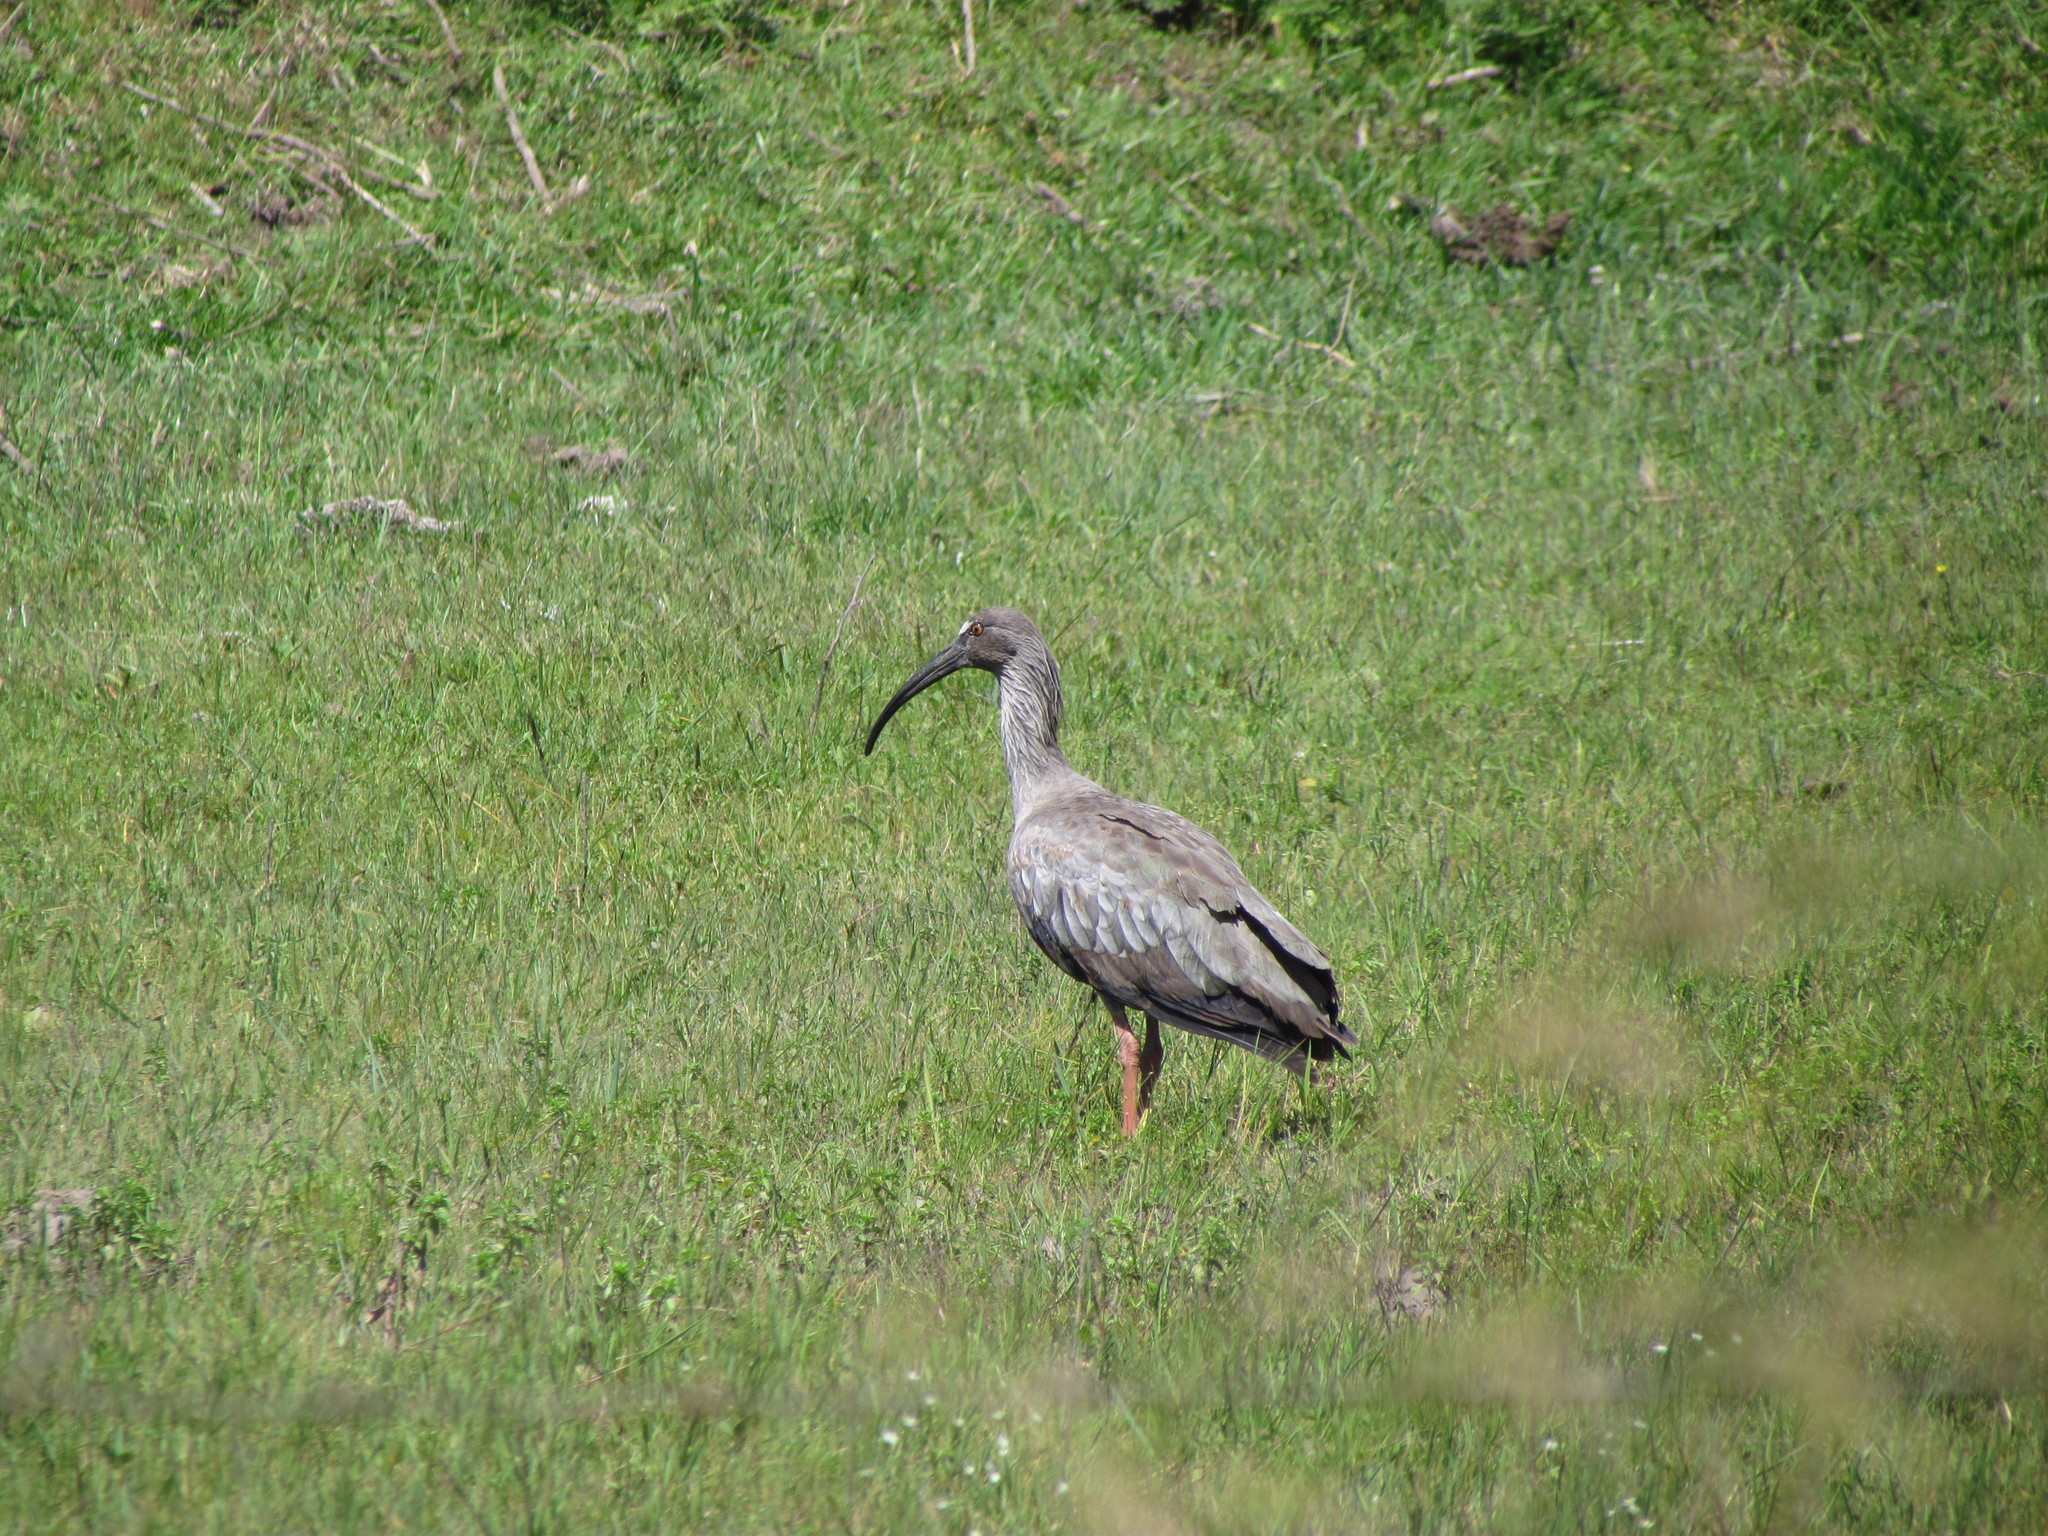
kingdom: Animalia
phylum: Chordata
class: Aves
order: Pelecaniformes
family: Threskiornithidae
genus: Theristicus
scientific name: Theristicus caerulescens
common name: Plumbeous ibis
